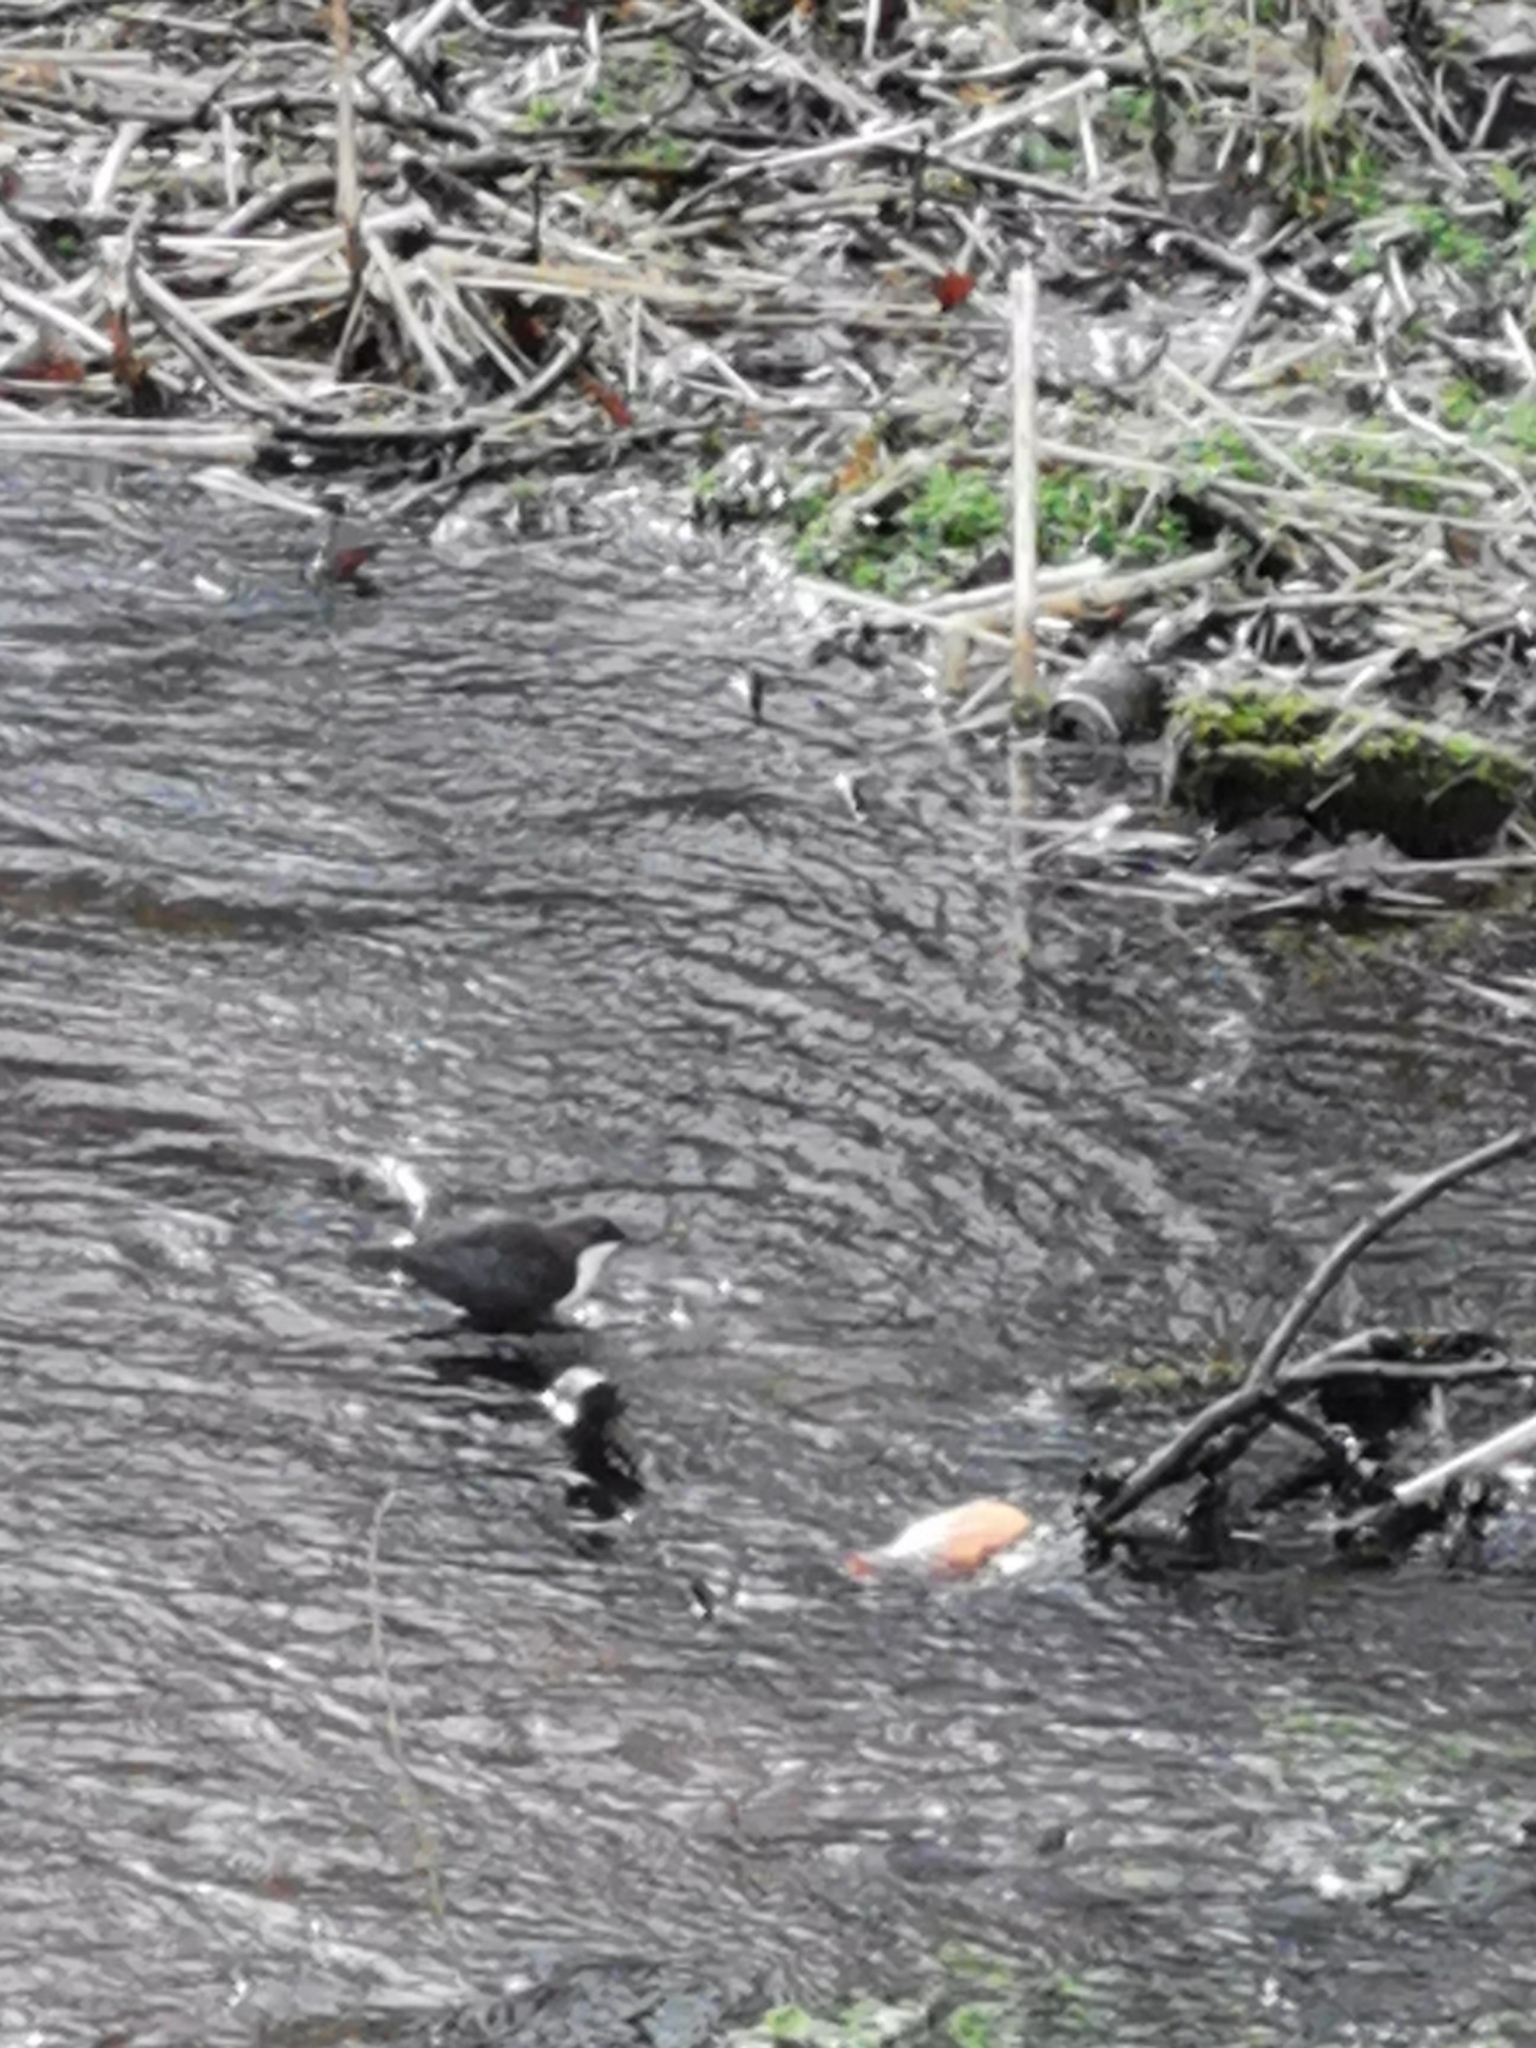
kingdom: Animalia
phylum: Chordata
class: Aves
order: Passeriformes
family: Cinclidae
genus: Cinclus
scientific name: Cinclus cinclus
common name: White-throated dipper
